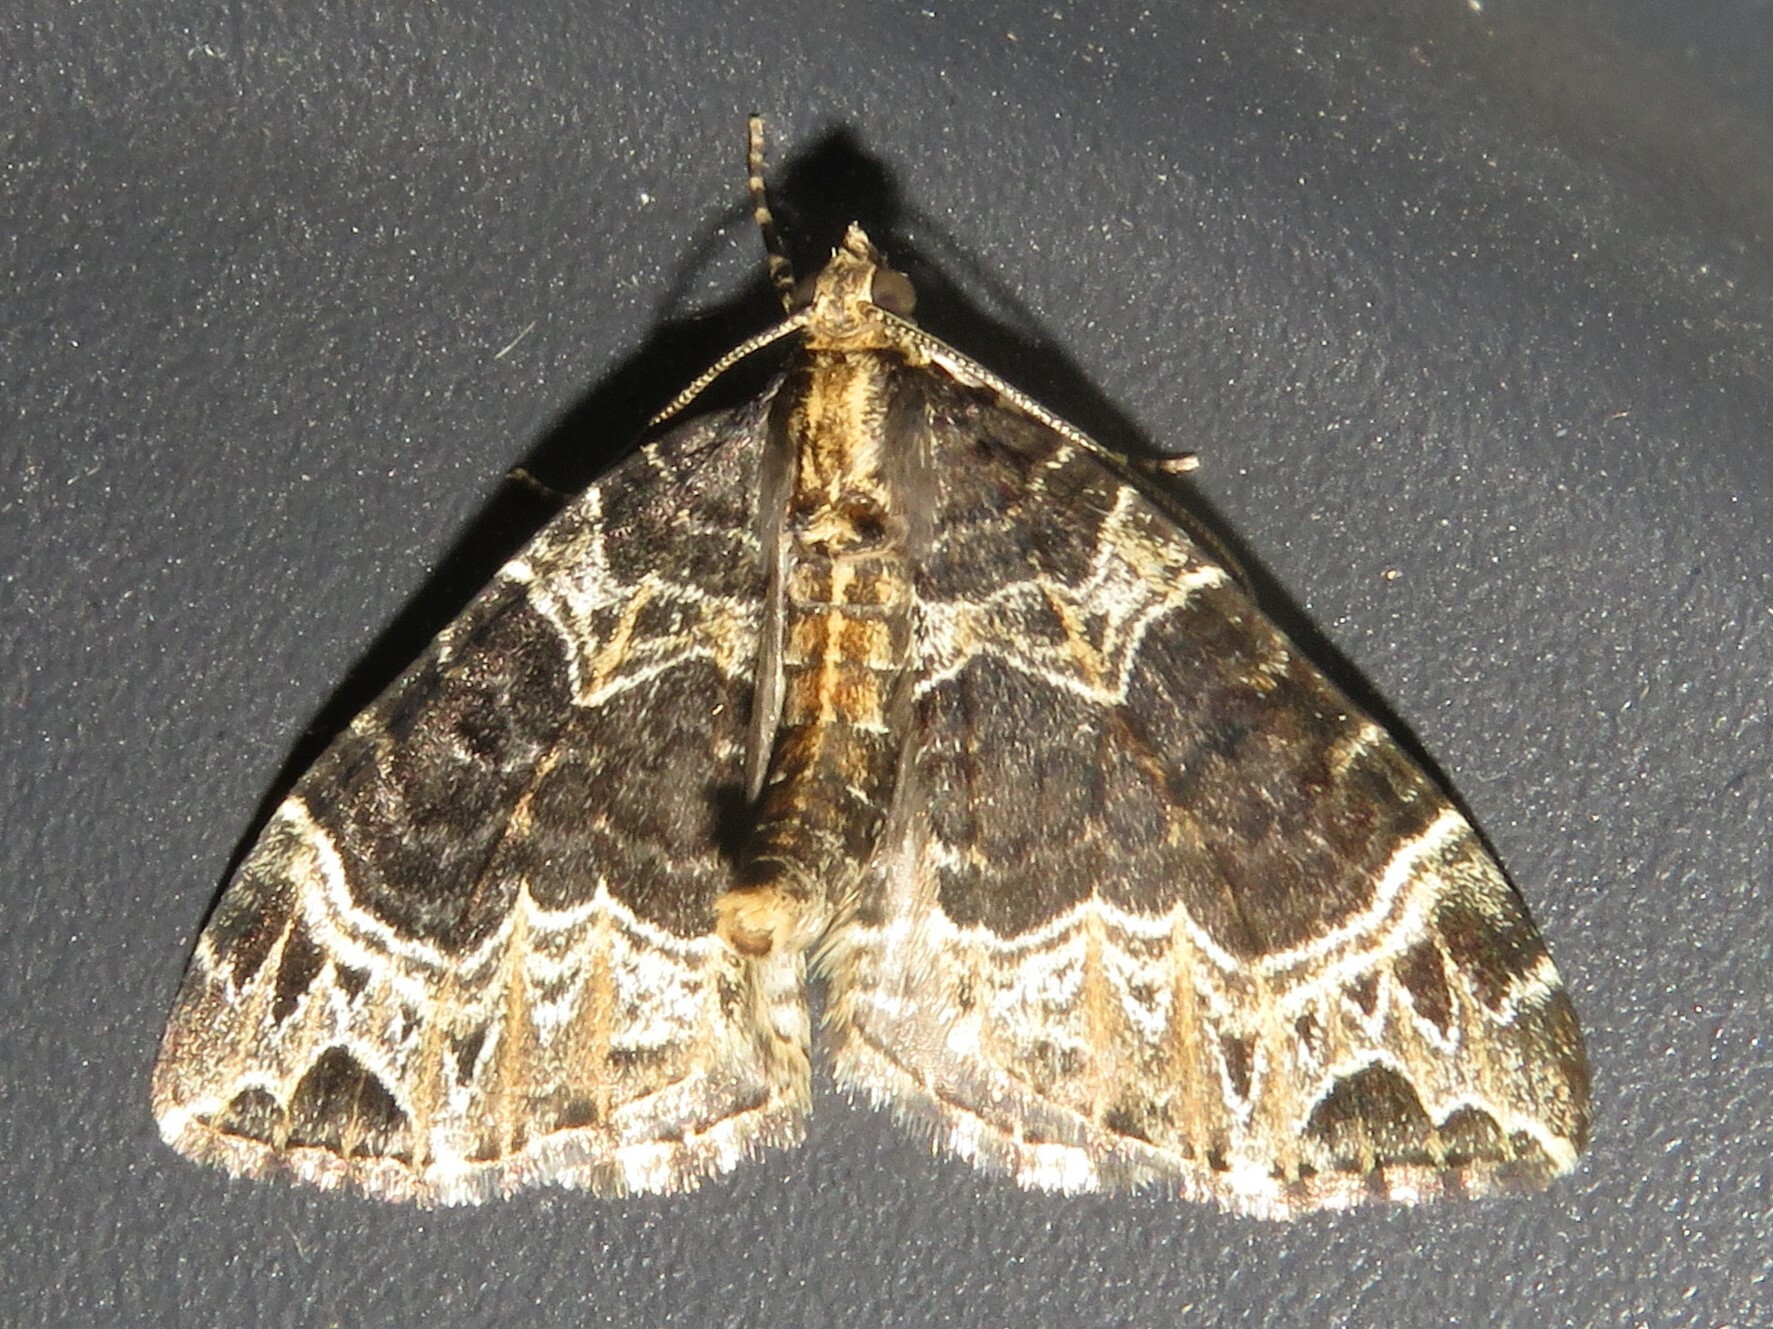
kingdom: Animalia
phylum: Arthropoda
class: Insecta
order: Lepidoptera
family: Geometridae
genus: Ecliptopera
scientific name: Ecliptopera silaceata
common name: Small phoenix
